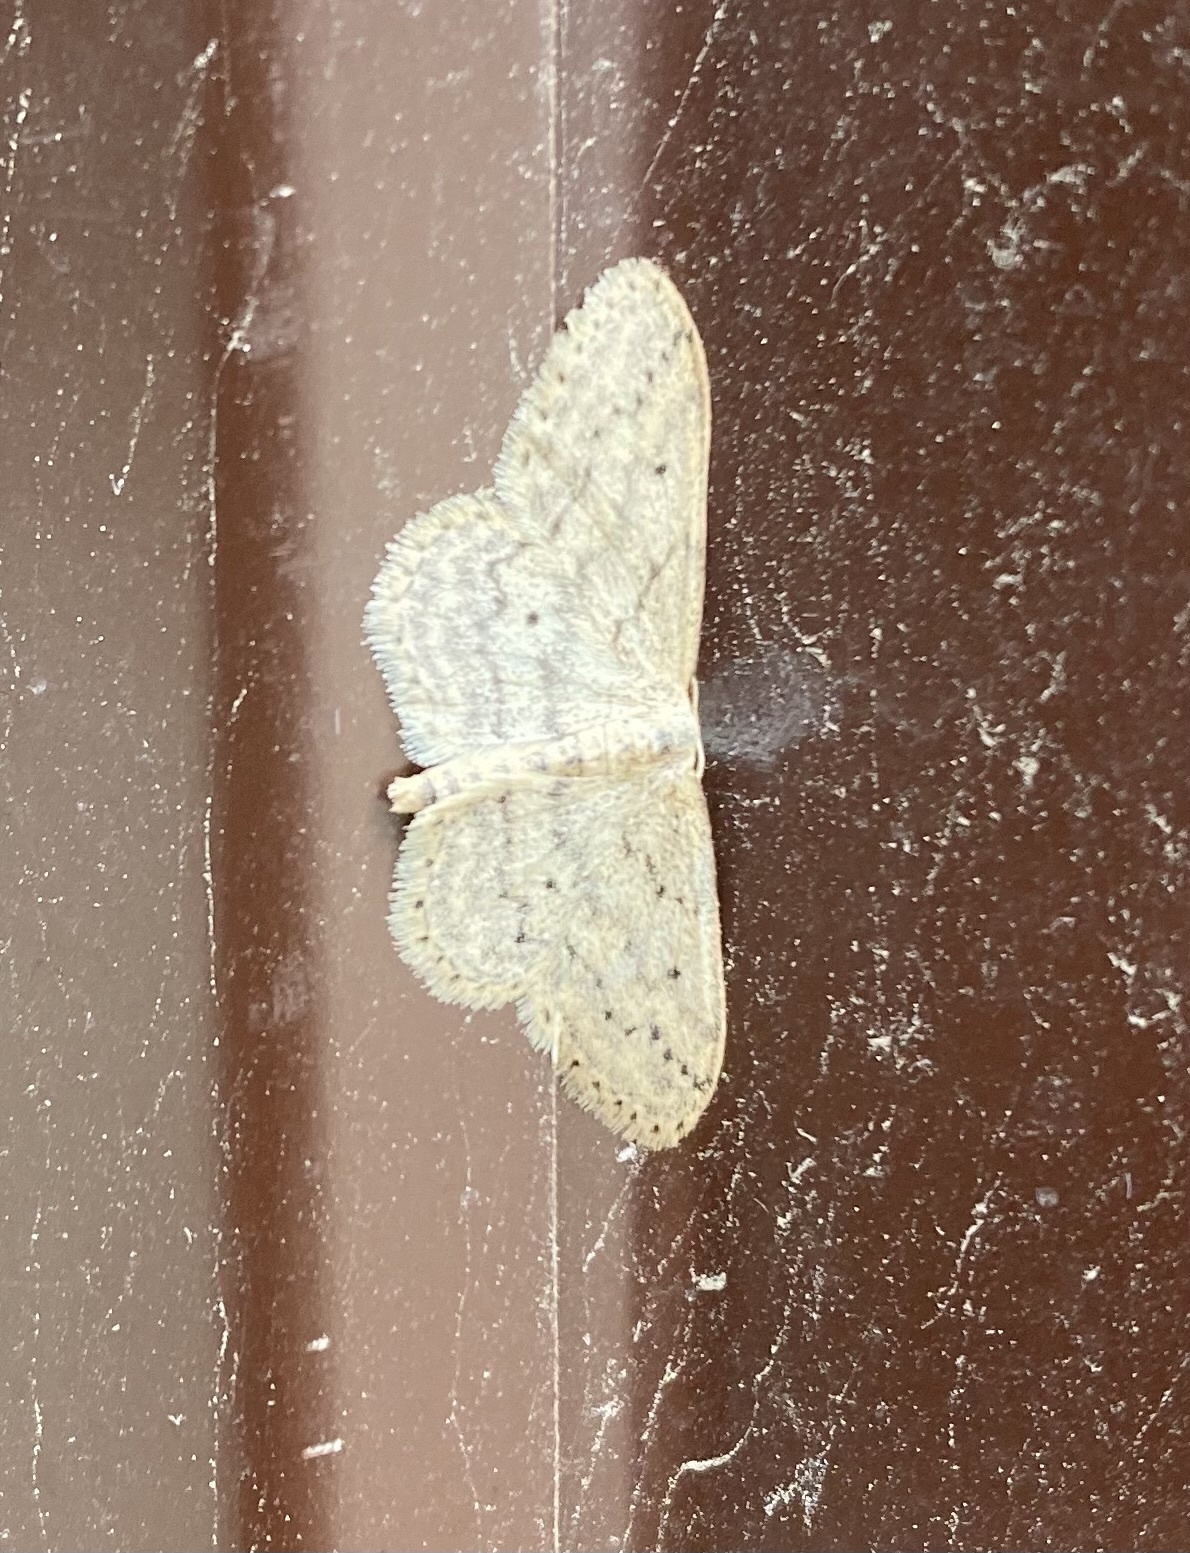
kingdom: Animalia
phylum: Arthropoda
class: Insecta
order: Lepidoptera
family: Geometridae
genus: Idaea
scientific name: Idaea seriata
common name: Small dusty wave
